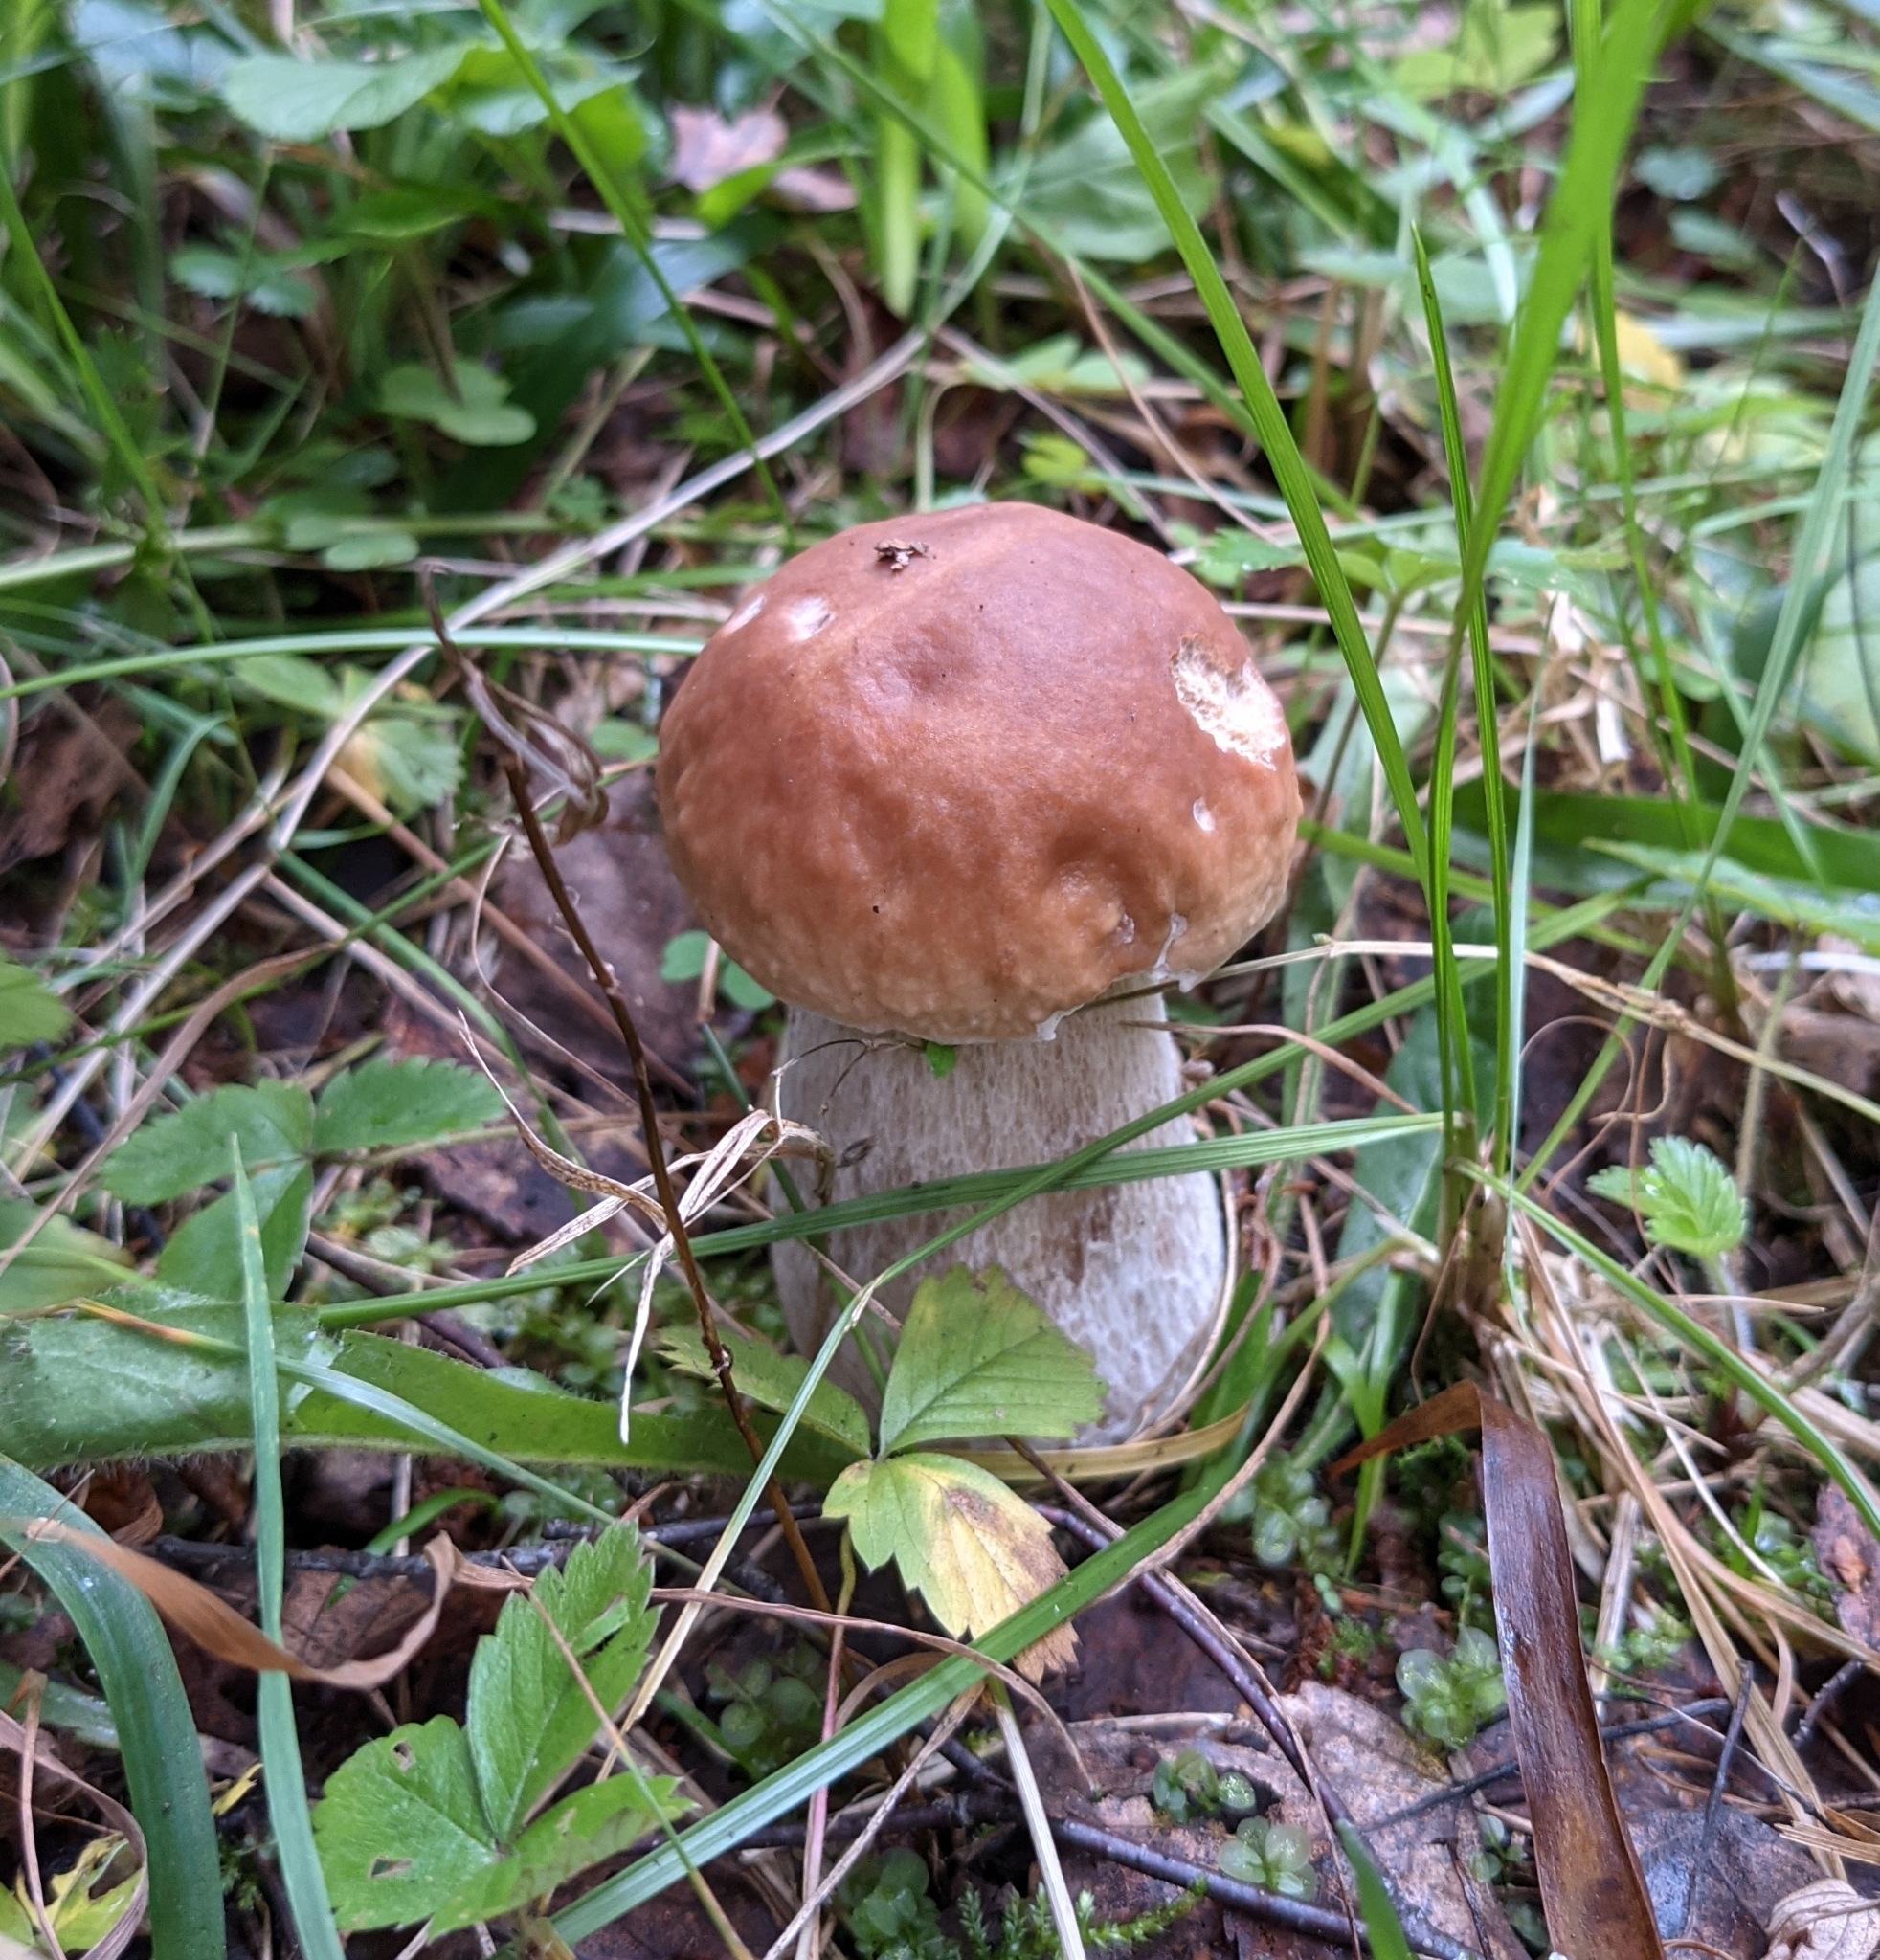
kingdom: Fungi
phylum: Basidiomycota
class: Agaricomycetes
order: Boletales
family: Boletaceae
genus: Boletus
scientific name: Boletus edulis
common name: Cep
